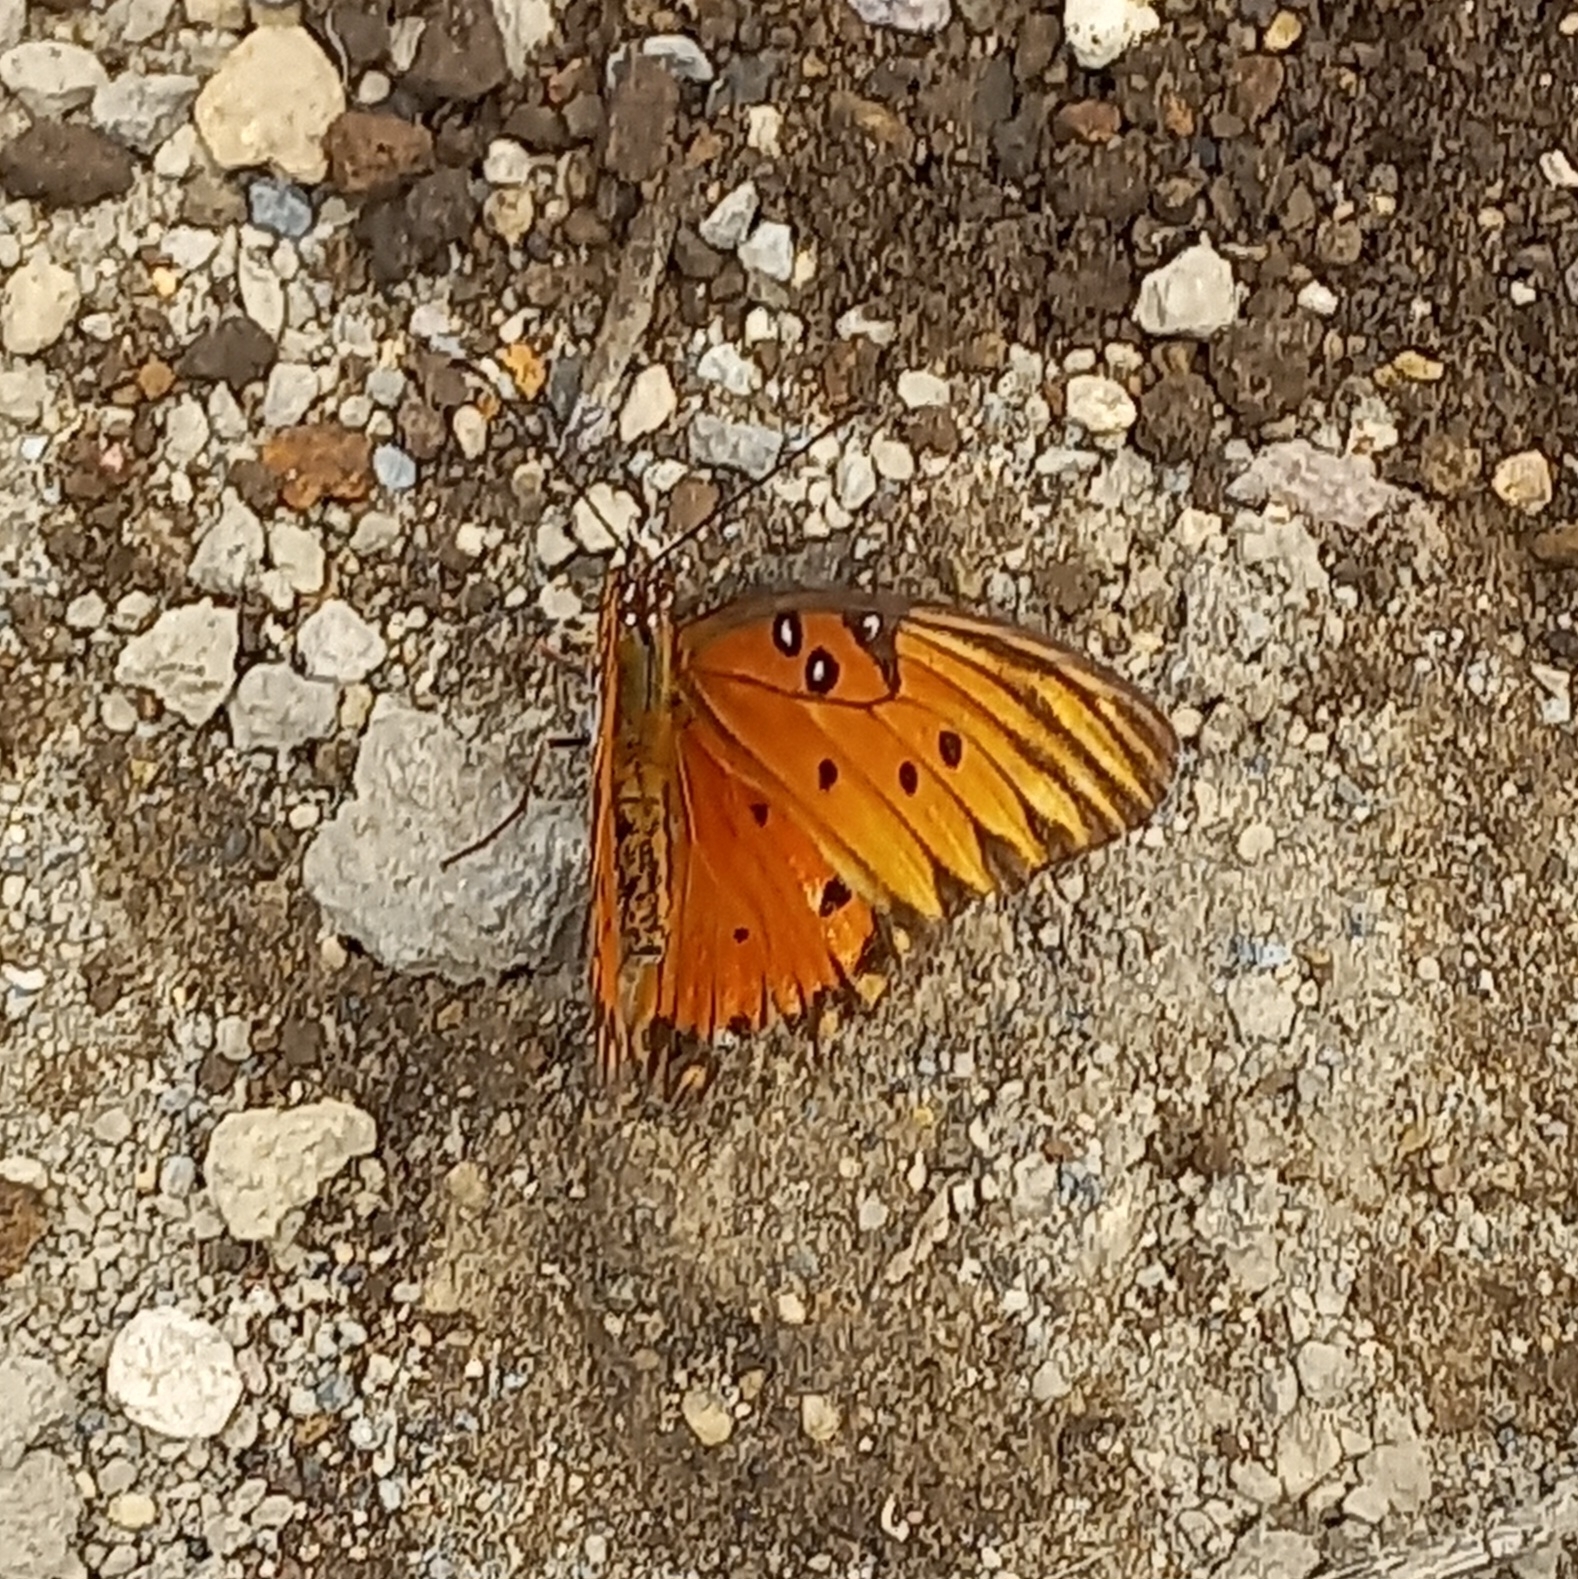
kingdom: Animalia
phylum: Arthropoda
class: Insecta
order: Lepidoptera
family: Nymphalidae
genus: Dione
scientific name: Dione vanillae
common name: Gulf fritillary
